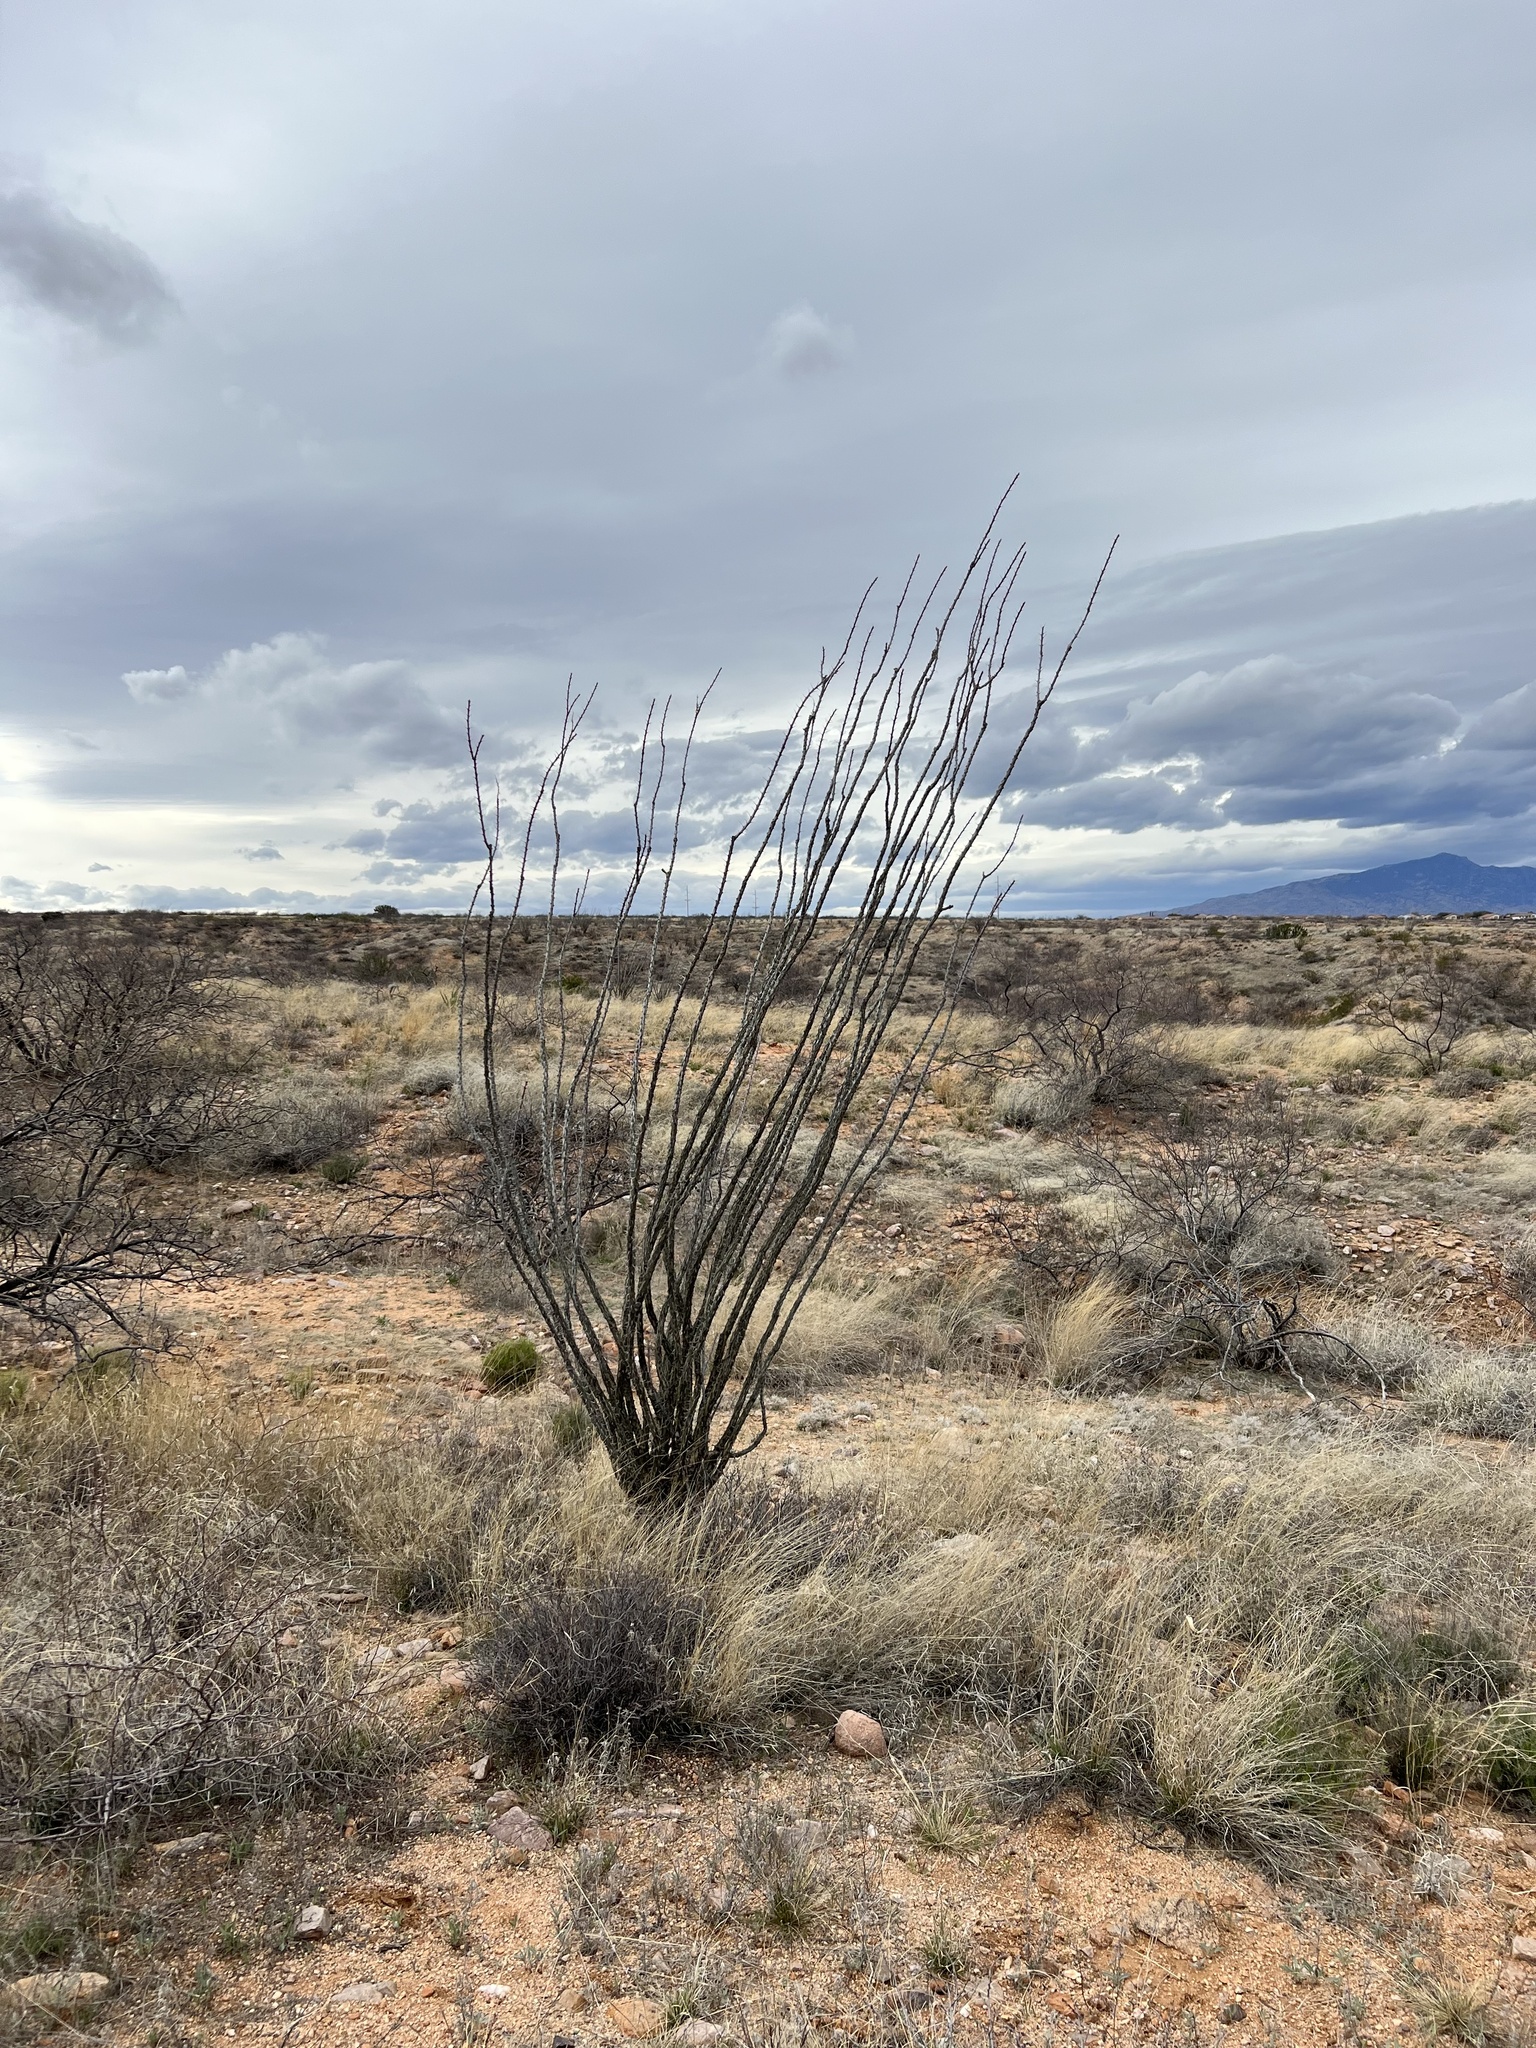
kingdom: Plantae
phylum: Tracheophyta
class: Magnoliopsida
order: Ericales
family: Fouquieriaceae
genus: Fouquieria
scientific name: Fouquieria splendens
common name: Vine-cactus
